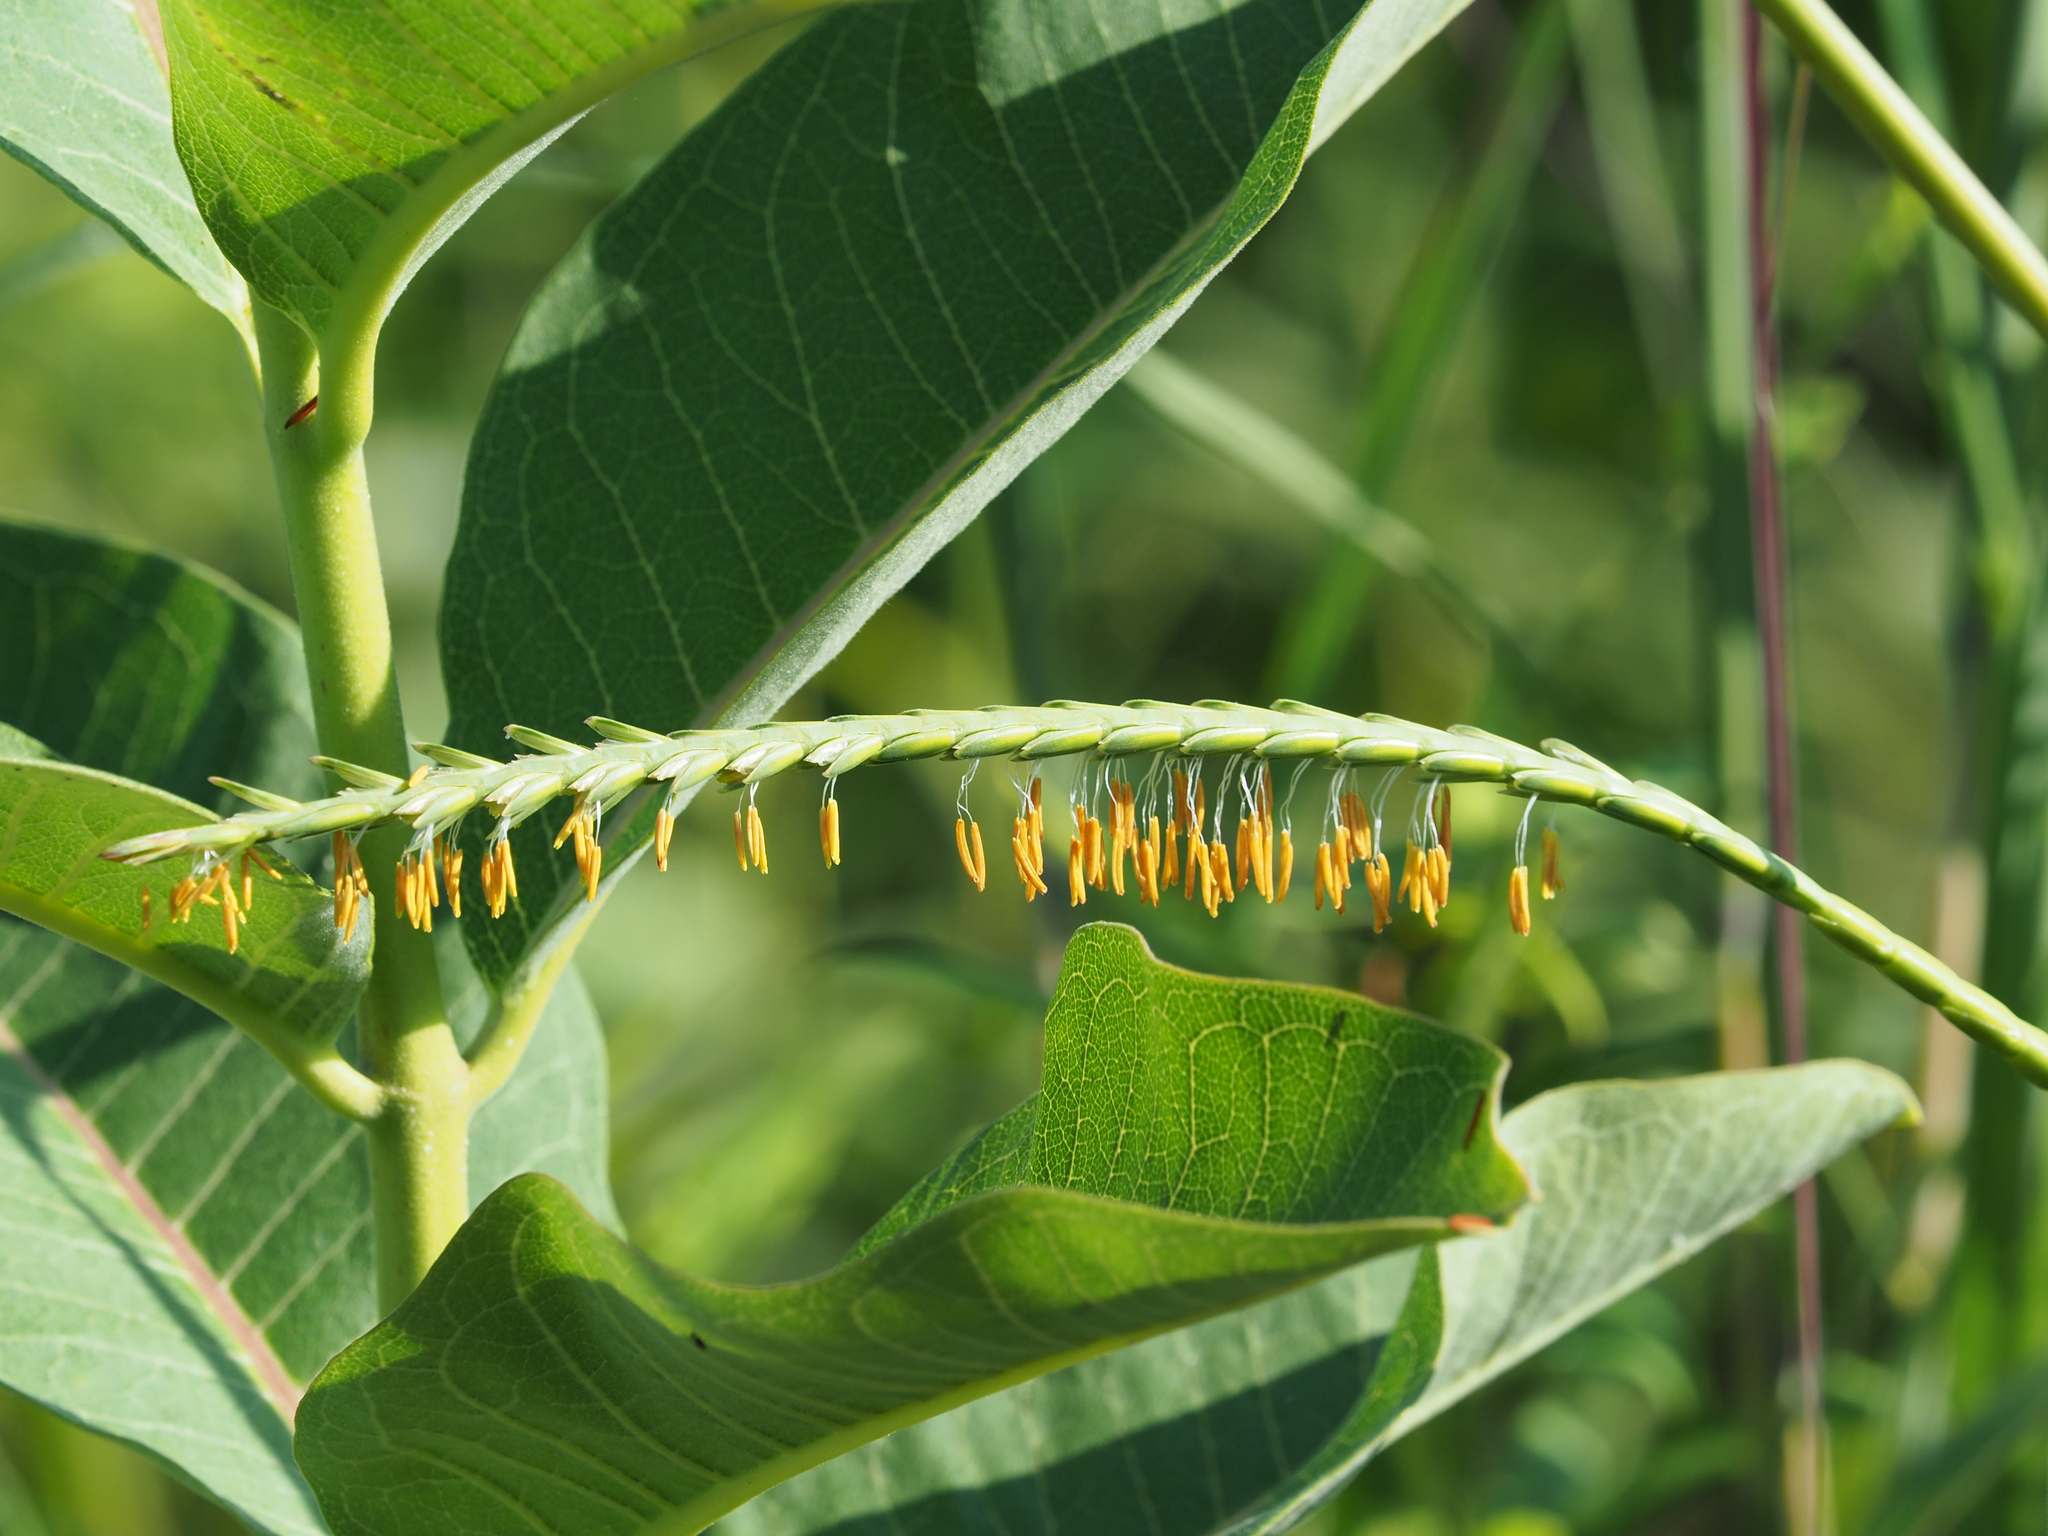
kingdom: Plantae
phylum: Tracheophyta
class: Liliopsida
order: Poales
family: Poaceae
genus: Tripsacum
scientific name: Tripsacum dactyloides
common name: Buffalo-grass
